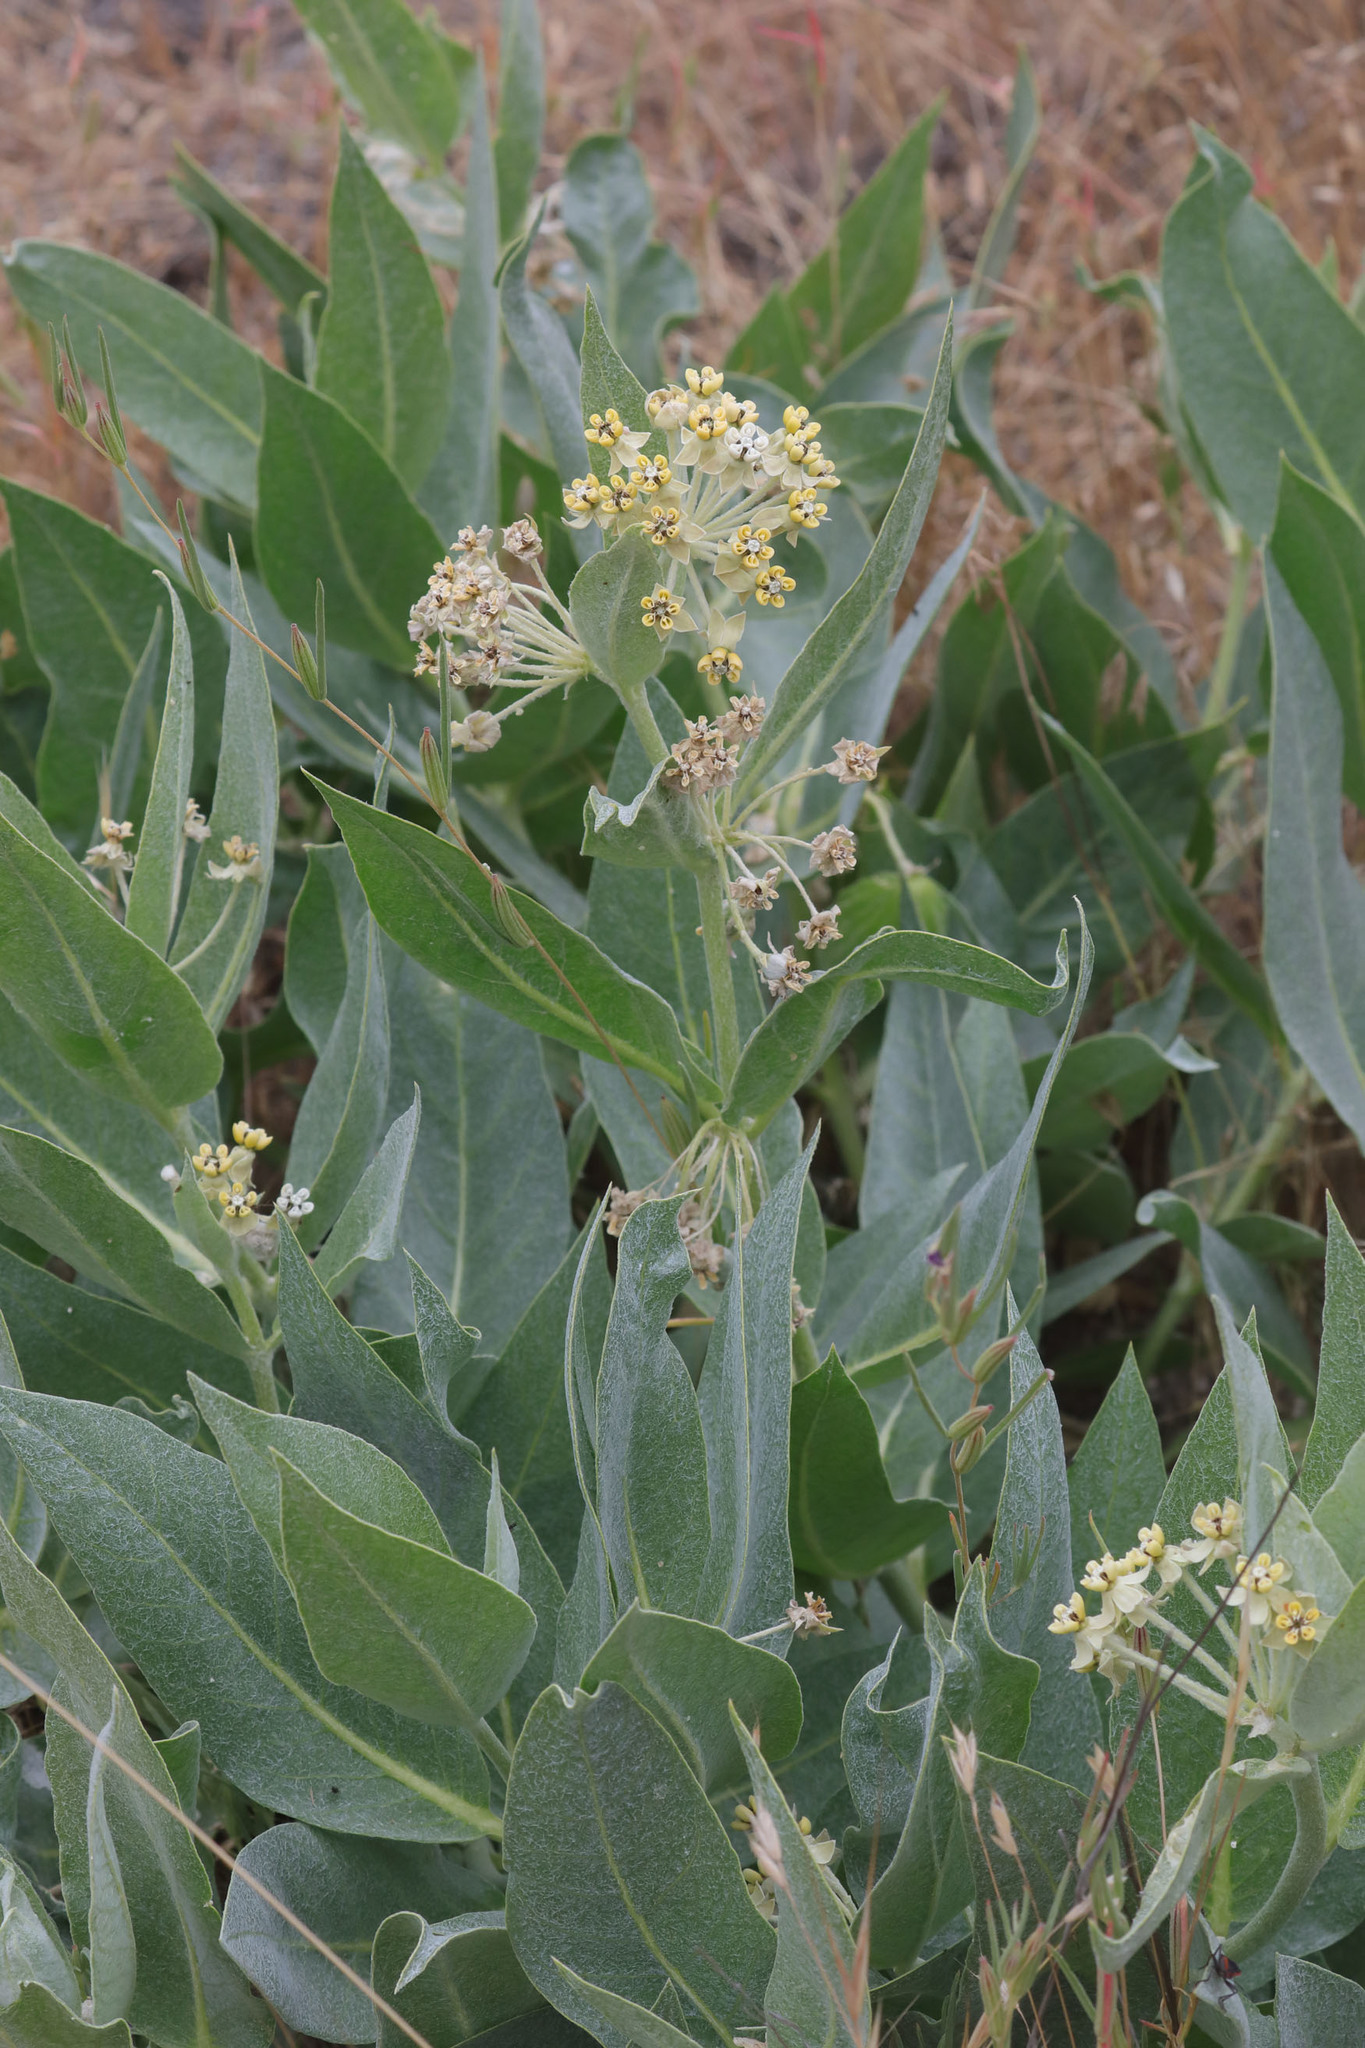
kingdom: Plantae
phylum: Tracheophyta
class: Magnoliopsida
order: Gentianales
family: Apocynaceae
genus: Asclepias
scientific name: Asclepias vestita
